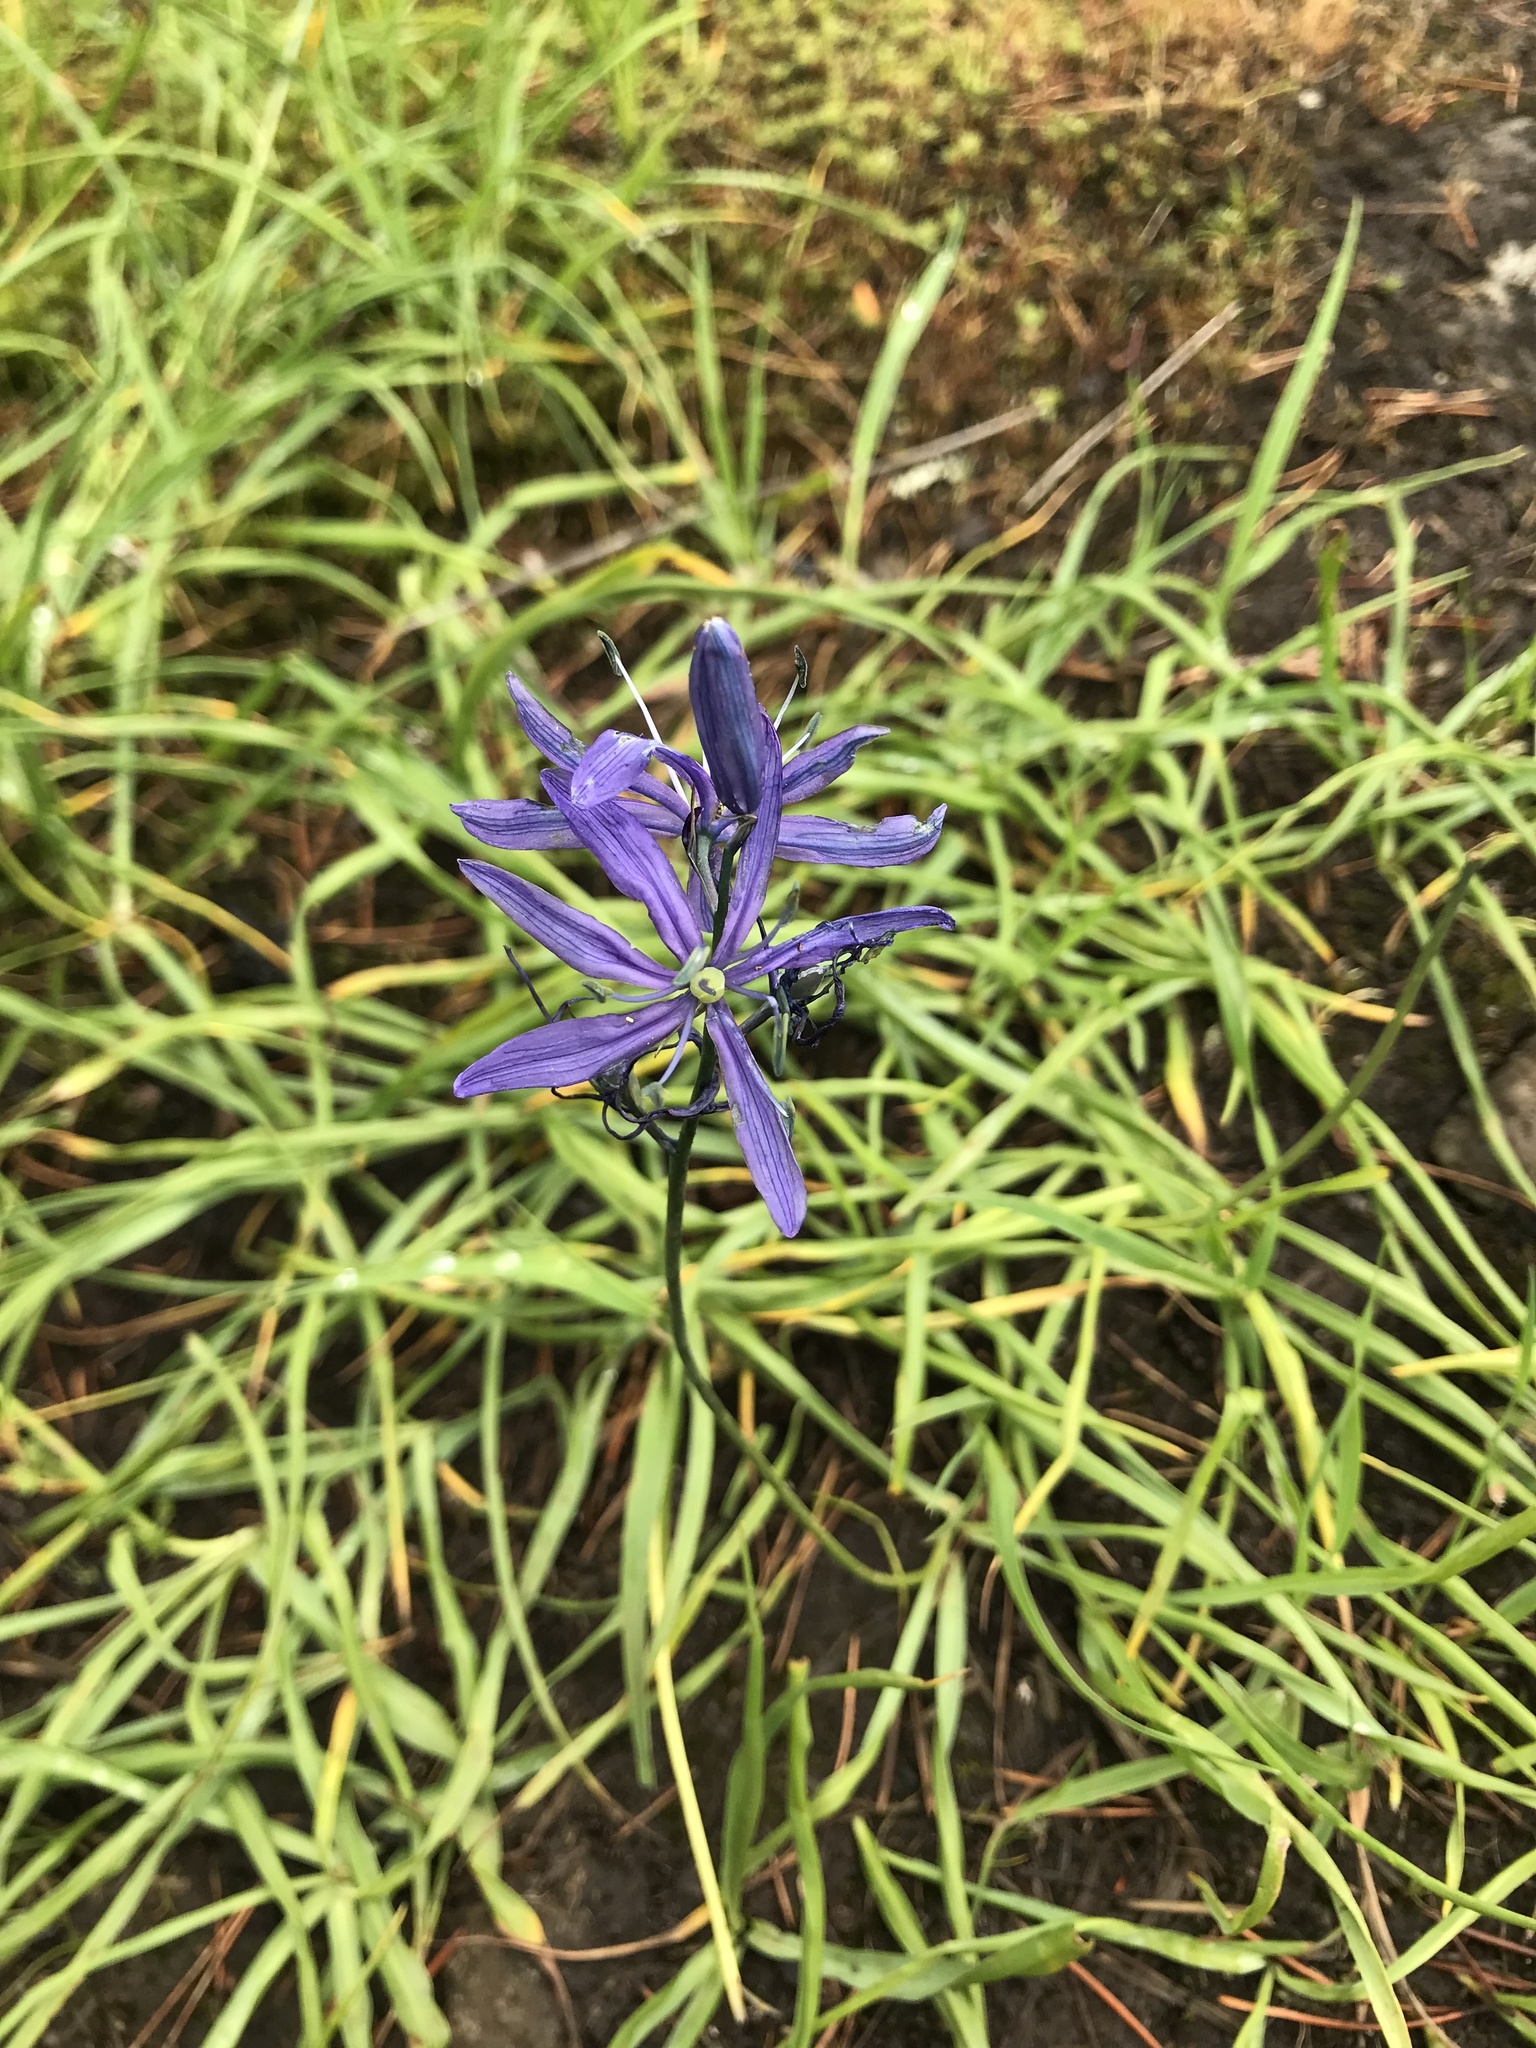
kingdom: Plantae
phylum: Tracheophyta
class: Liliopsida
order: Asparagales
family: Asparagaceae
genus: Camassia
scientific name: Camassia quamash
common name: Common camas
